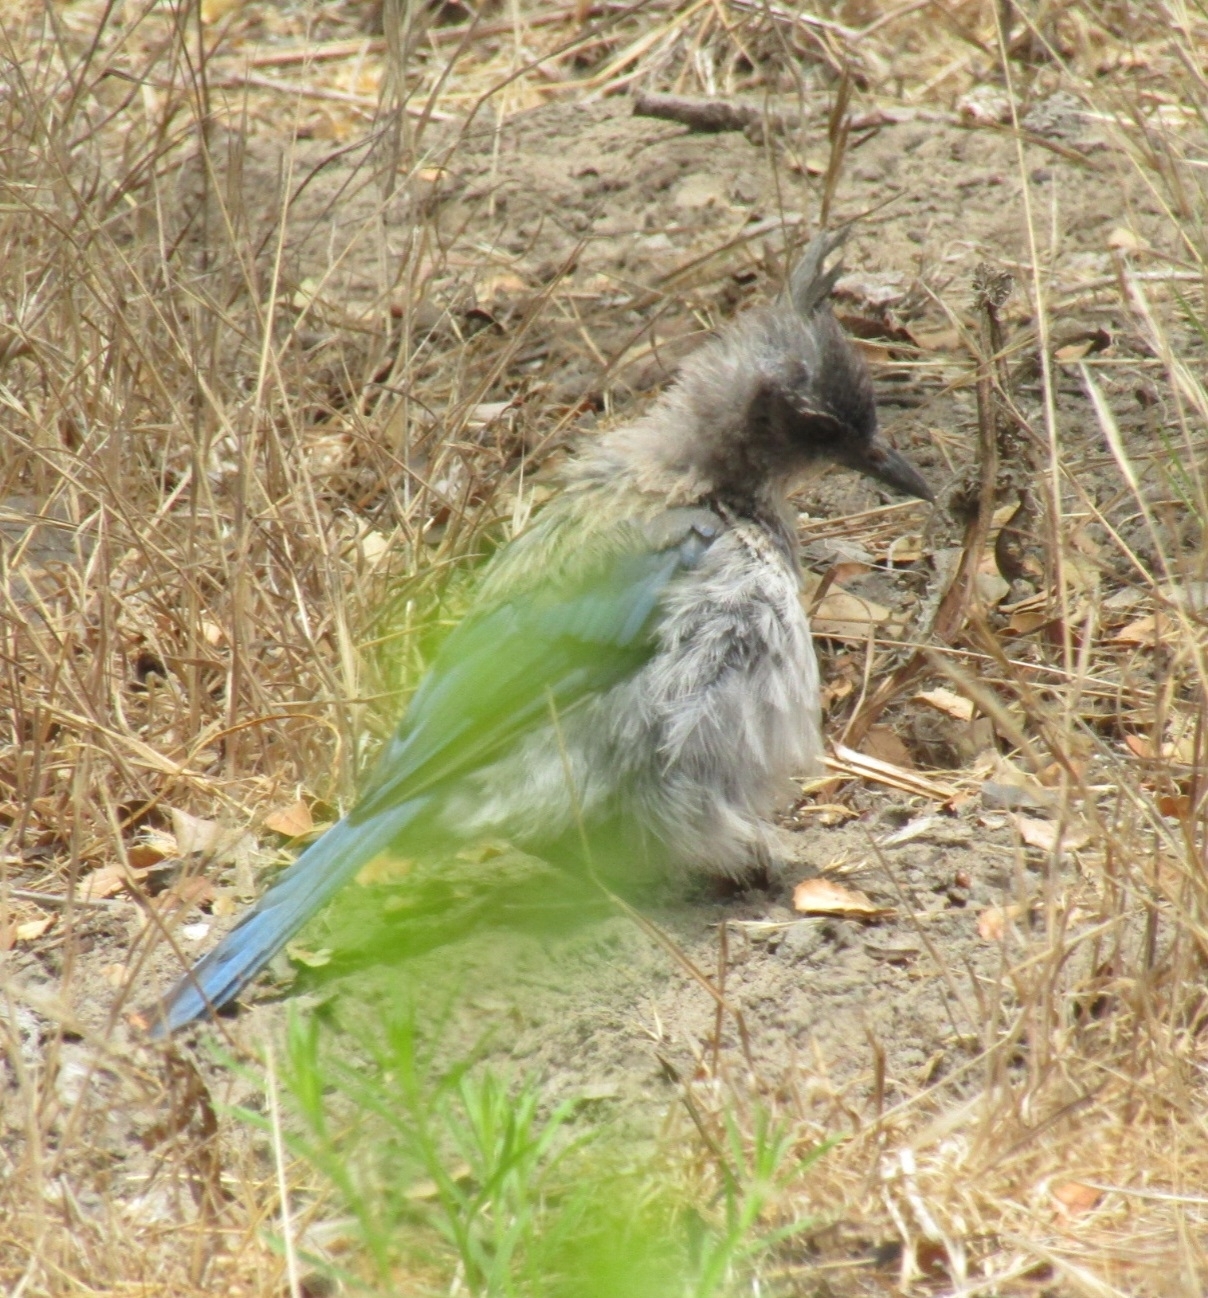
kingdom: Animalia
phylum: Chordata
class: Aves
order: Passeriformes
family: Corvidae
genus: Aphelocoma
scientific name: Aphelocoma californica
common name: California scrub-jay
